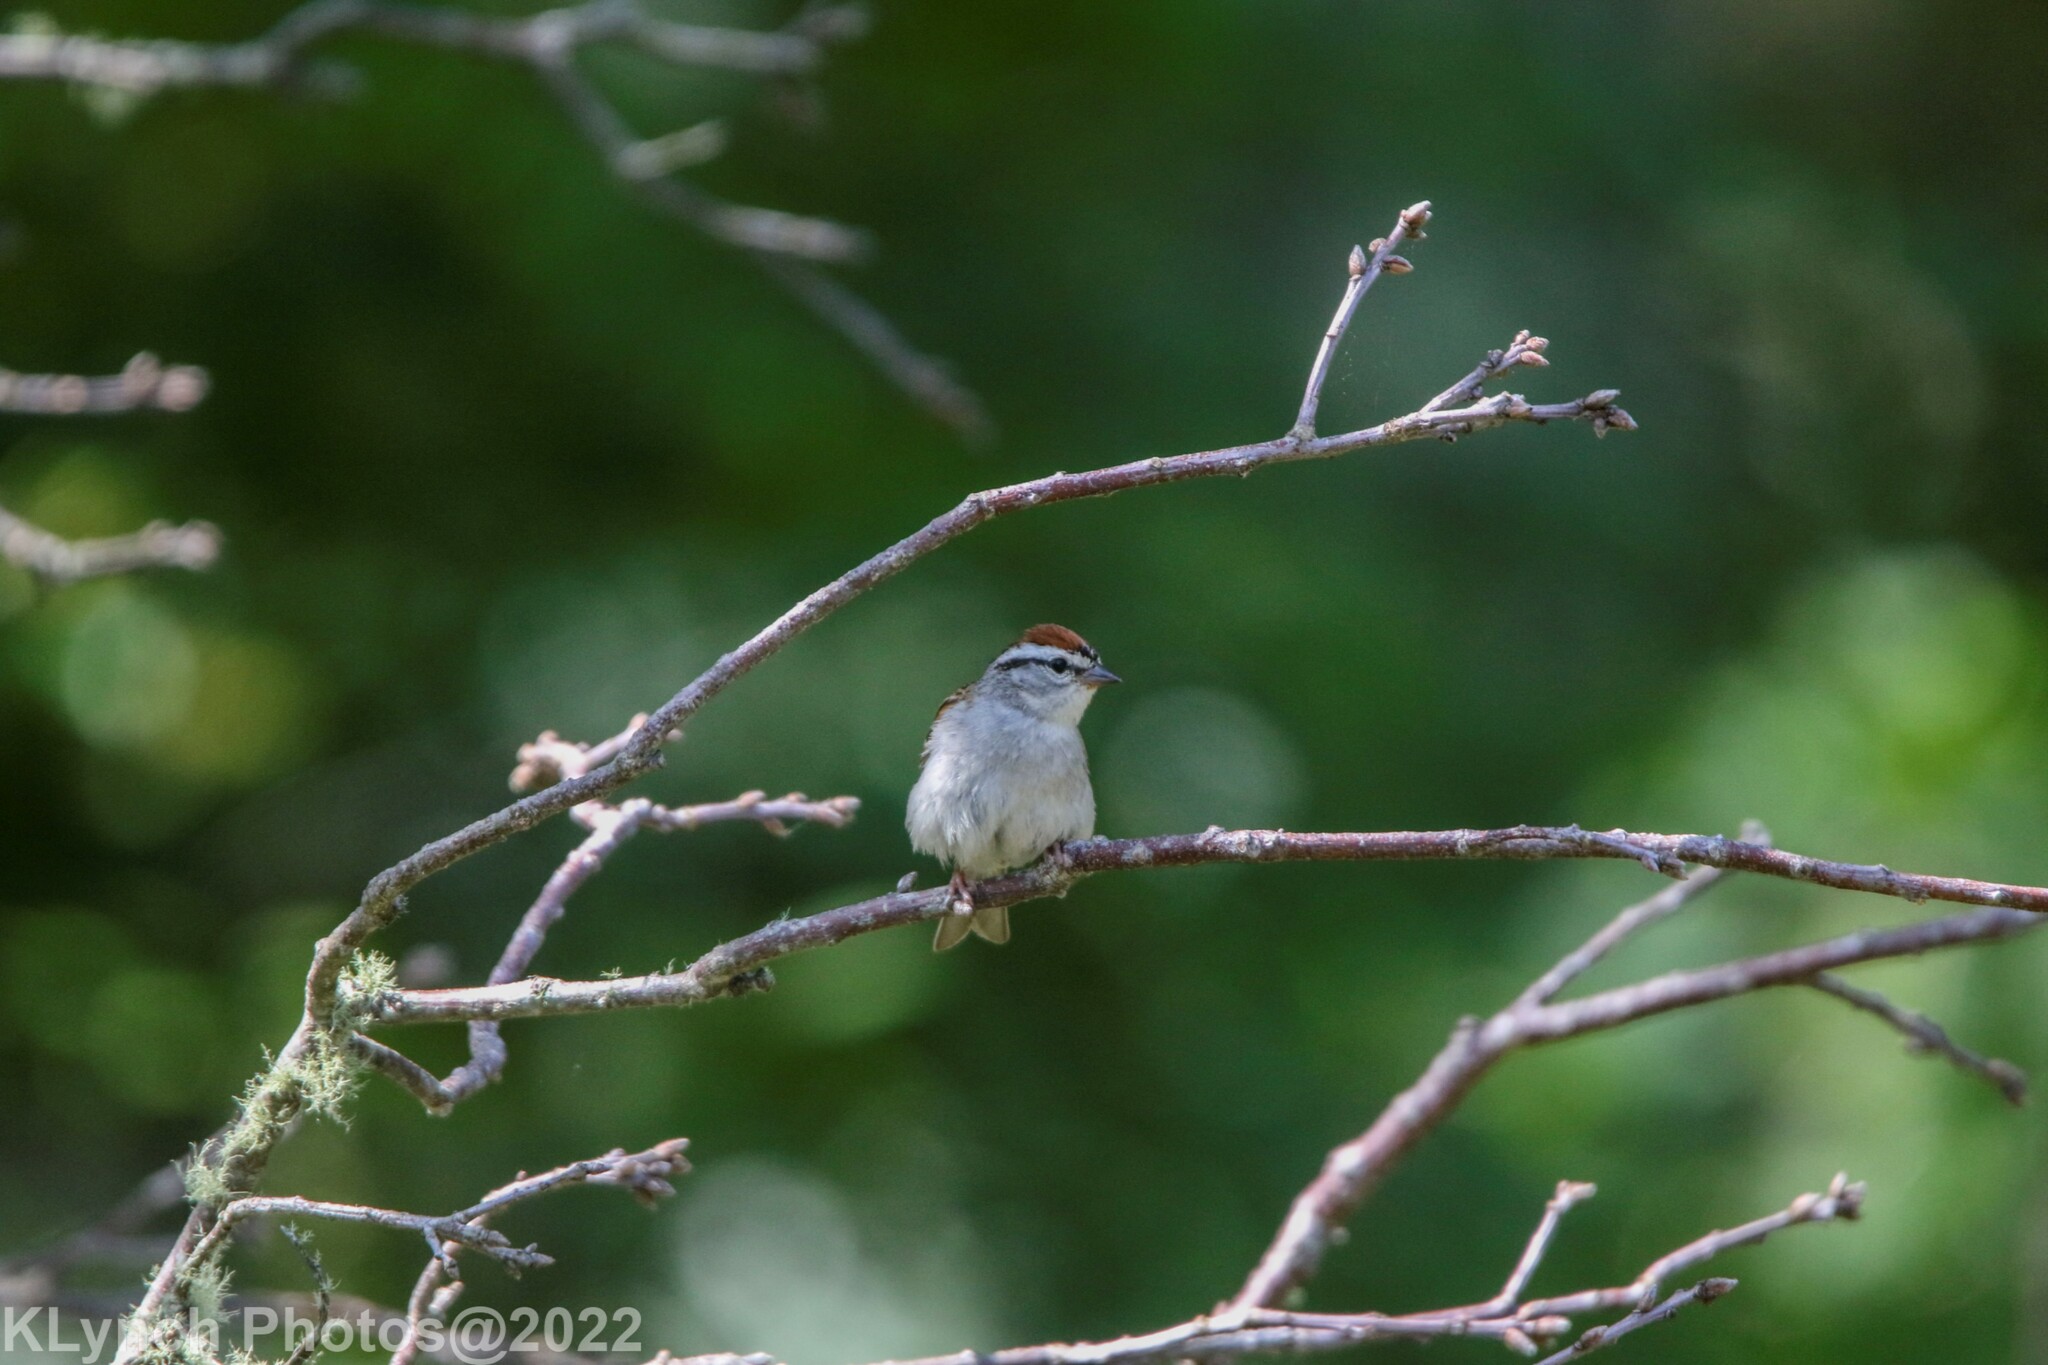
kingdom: Animalia
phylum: Chordata
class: Aves
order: Passeriformes
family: Passerellidae
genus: Spizella
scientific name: Spizella passerina
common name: Chipping sparrow
